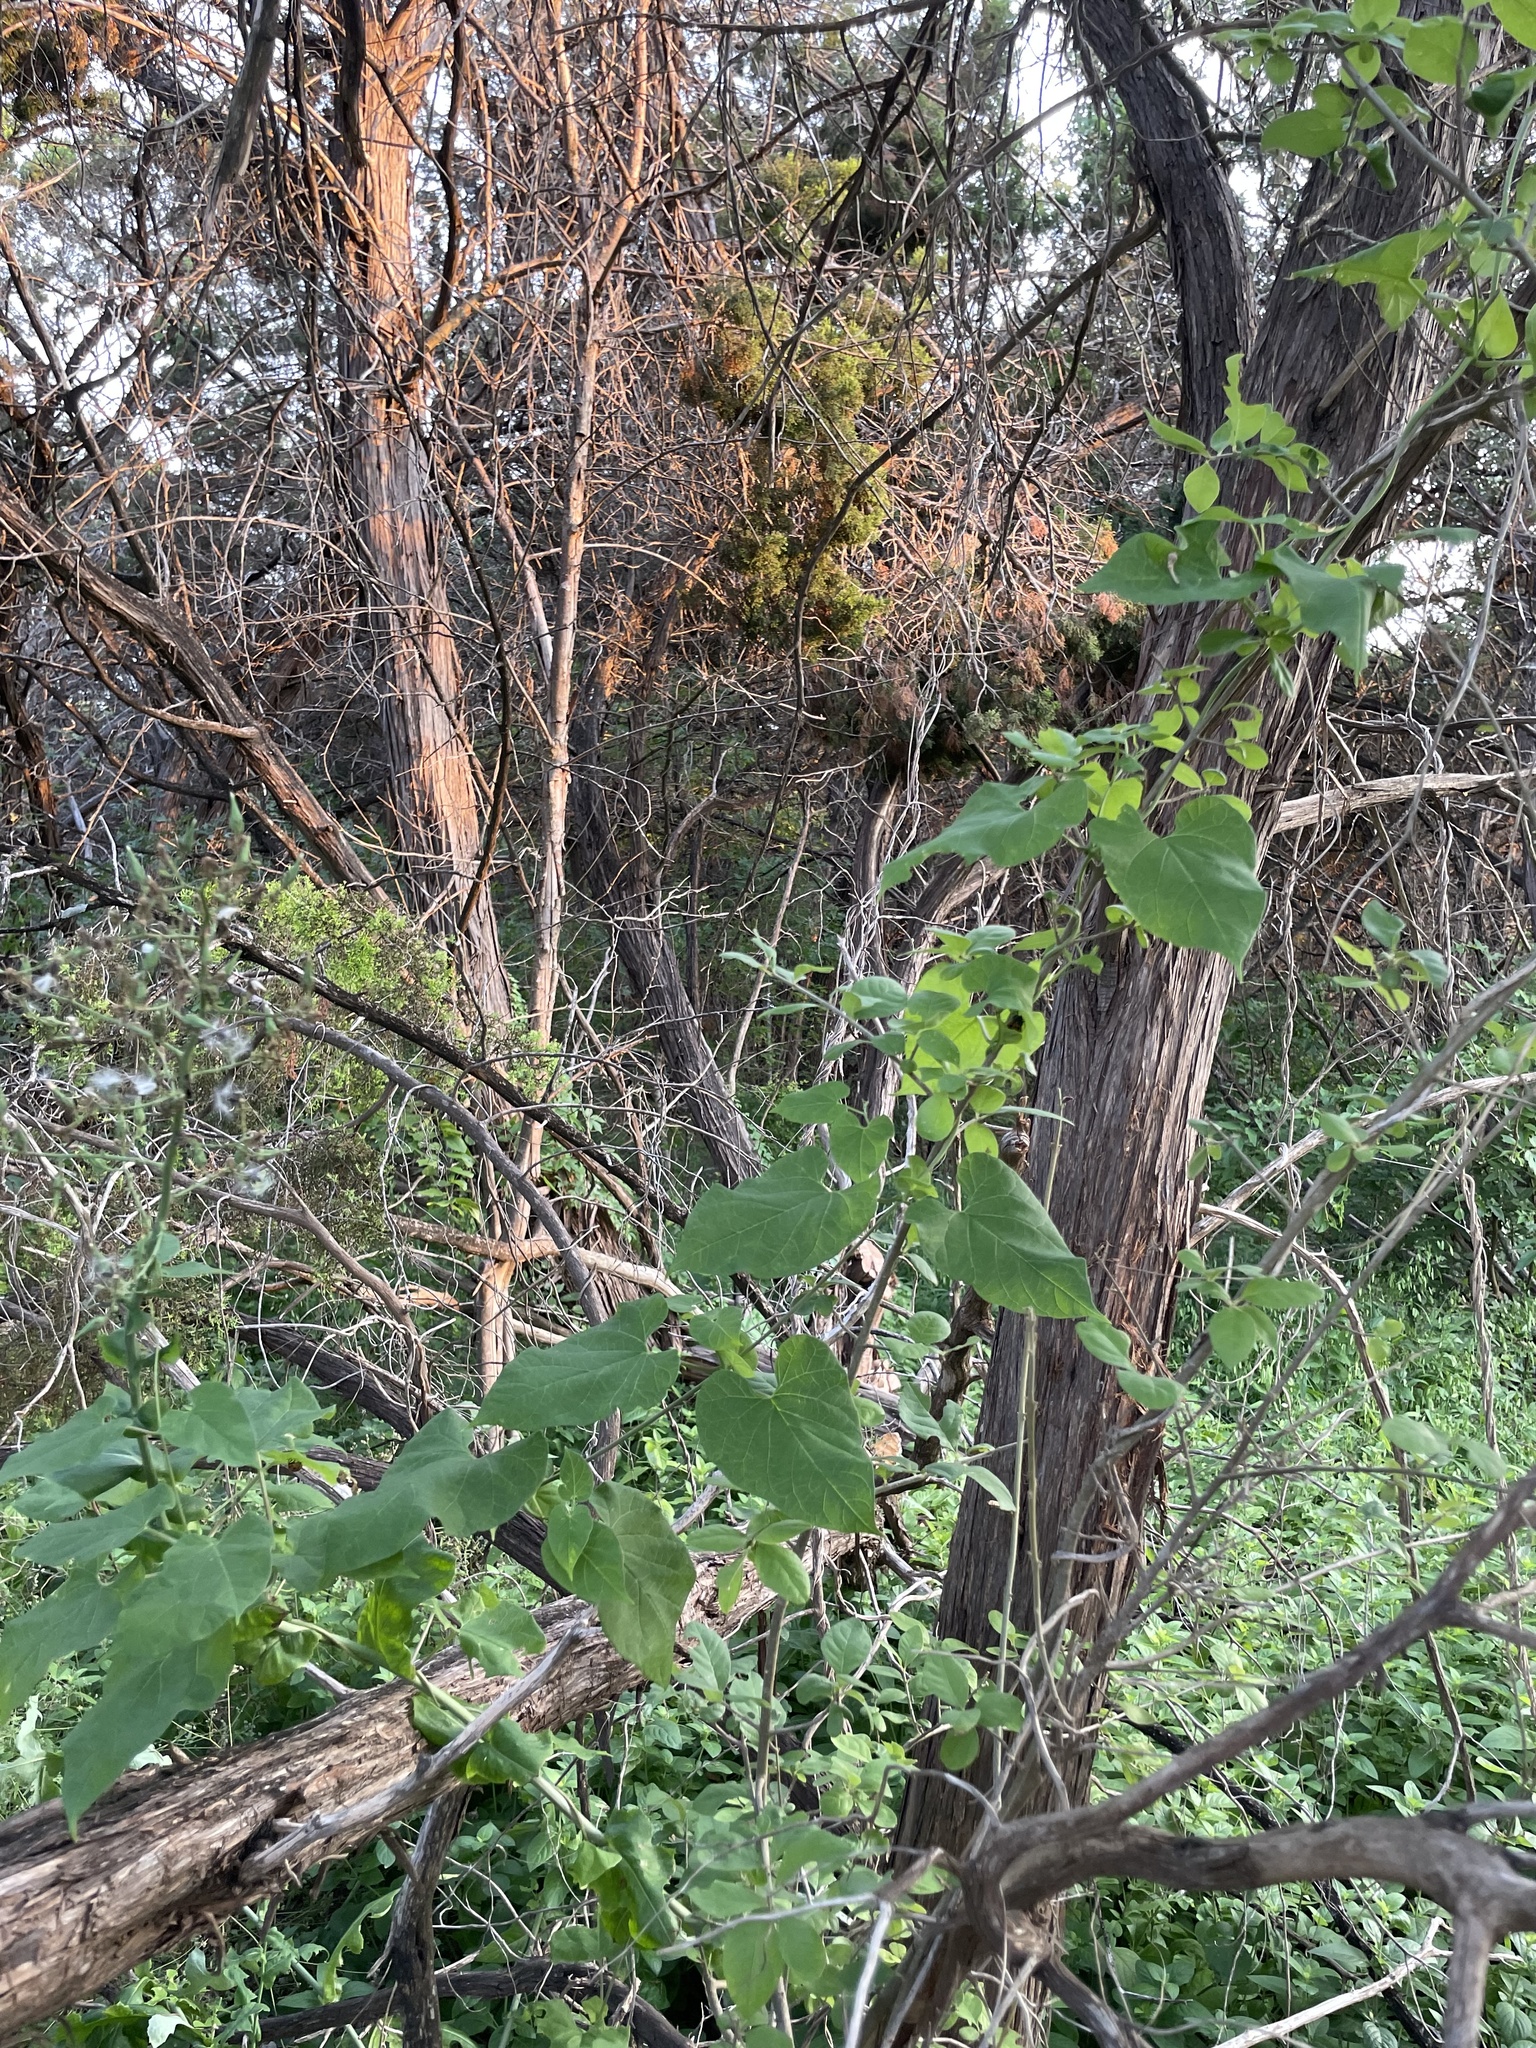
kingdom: Plantae
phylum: Tracheophyta
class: Magnoliopsida
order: Gentianales
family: Apocynaceae
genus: Cynanchum
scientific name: Cynanchum racemosum
